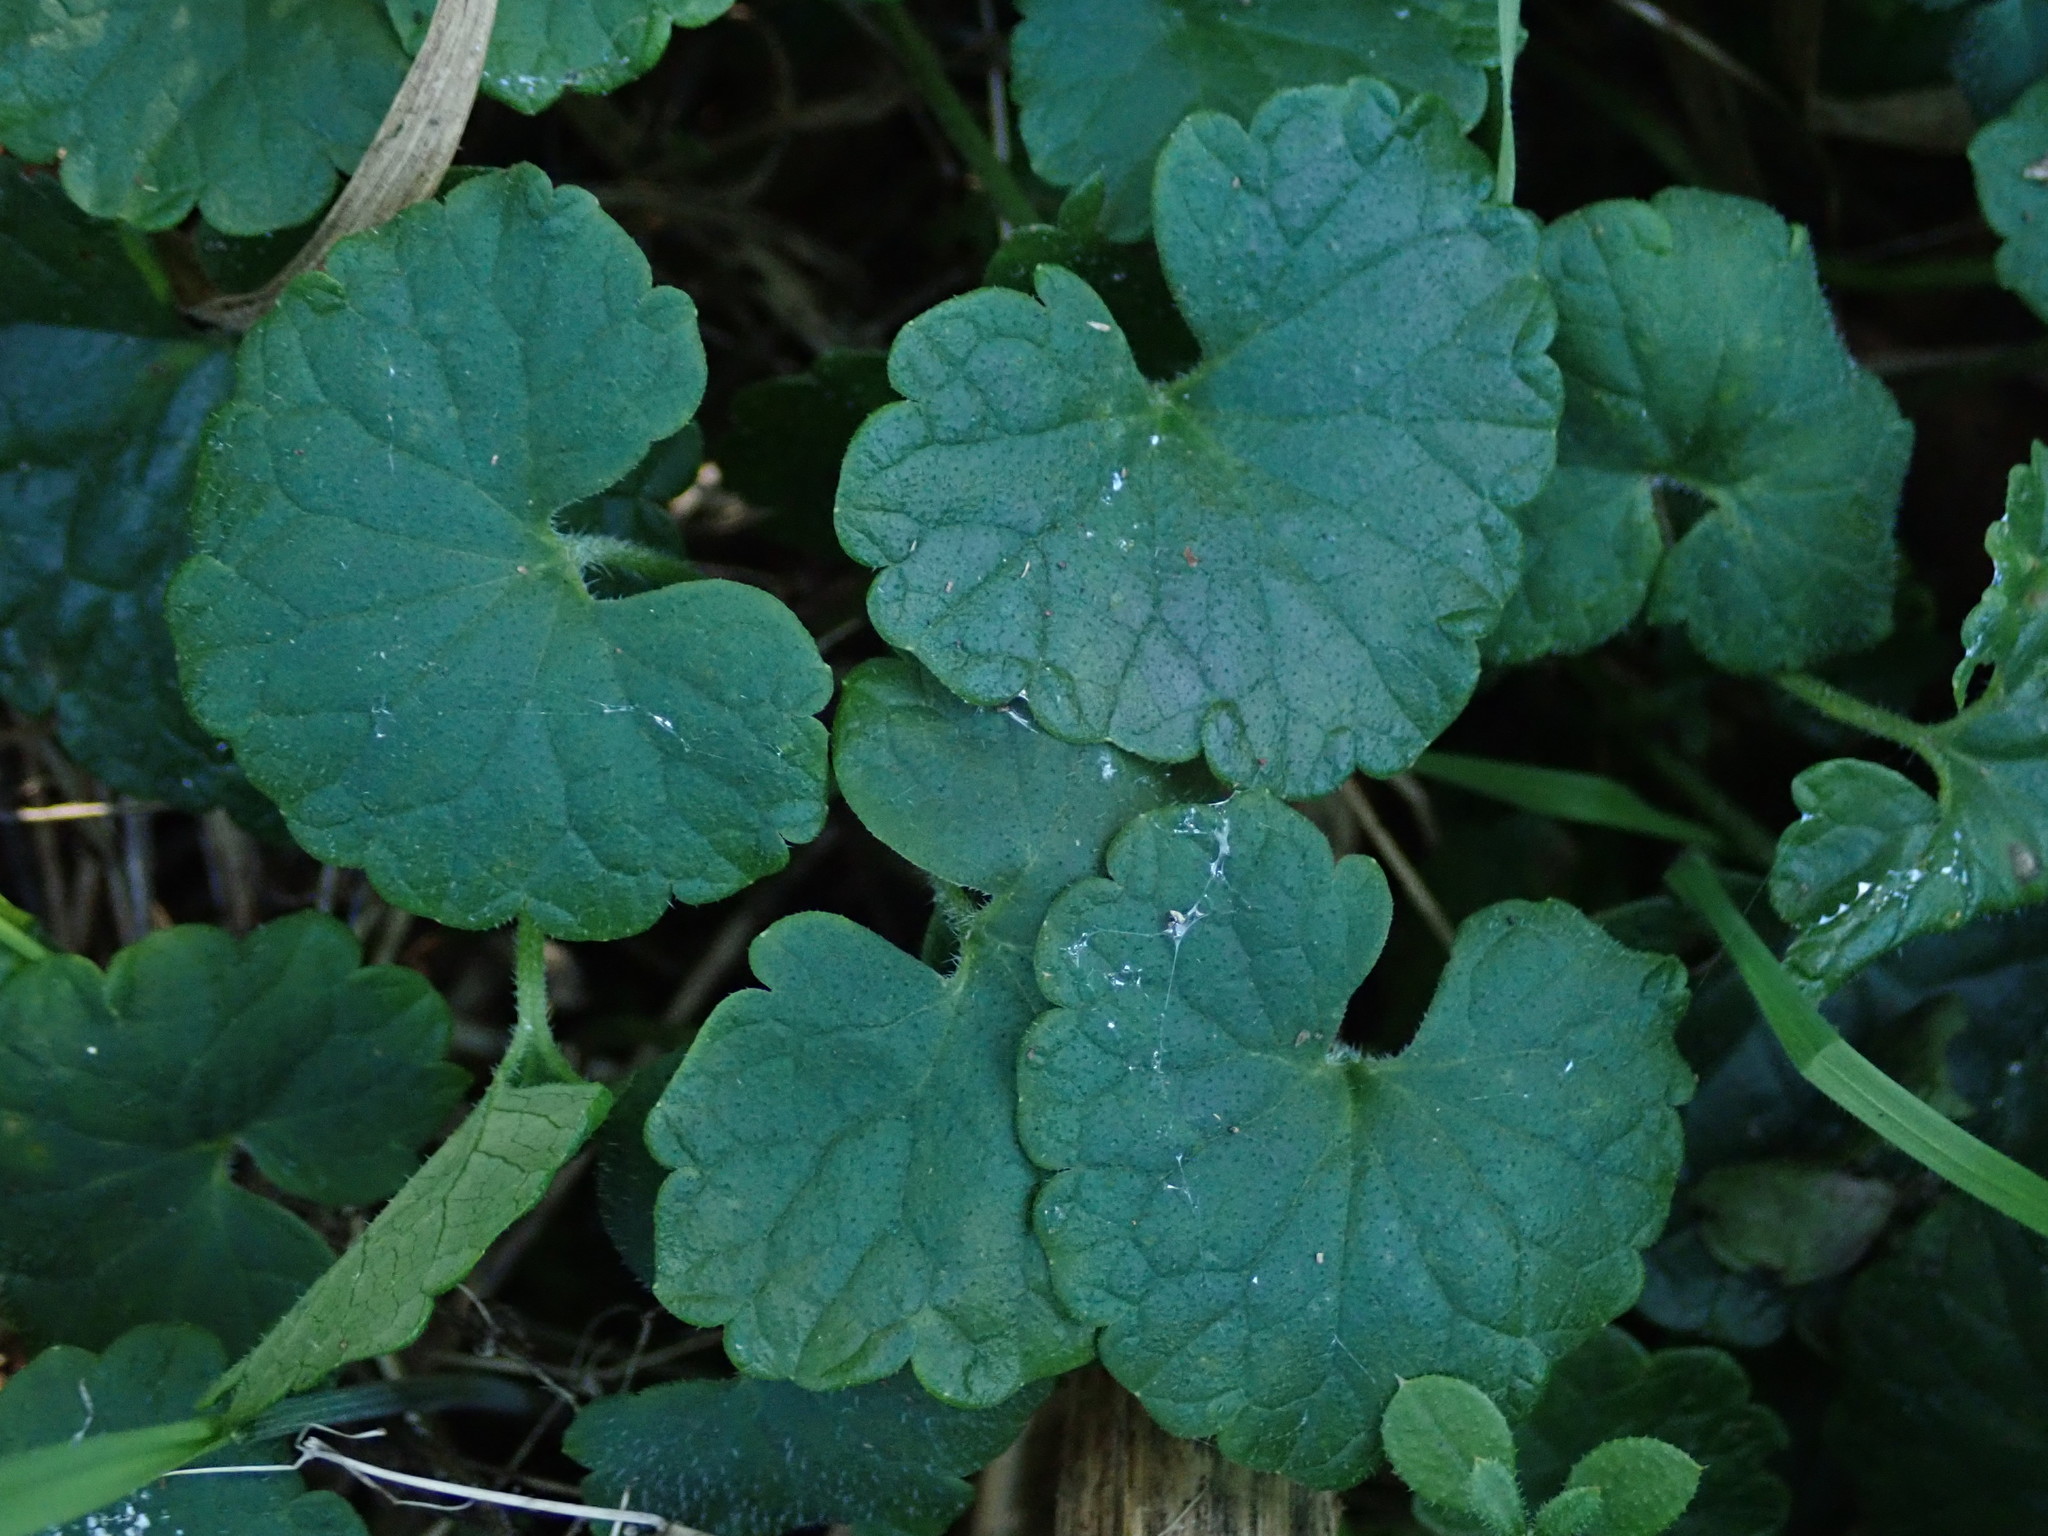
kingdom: Plantae
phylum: Tracheophyta
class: Magnoliopsida
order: Lamiales
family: Lamiaceae
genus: Glechoma
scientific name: Glechoma hederacea
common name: Ground ivy
